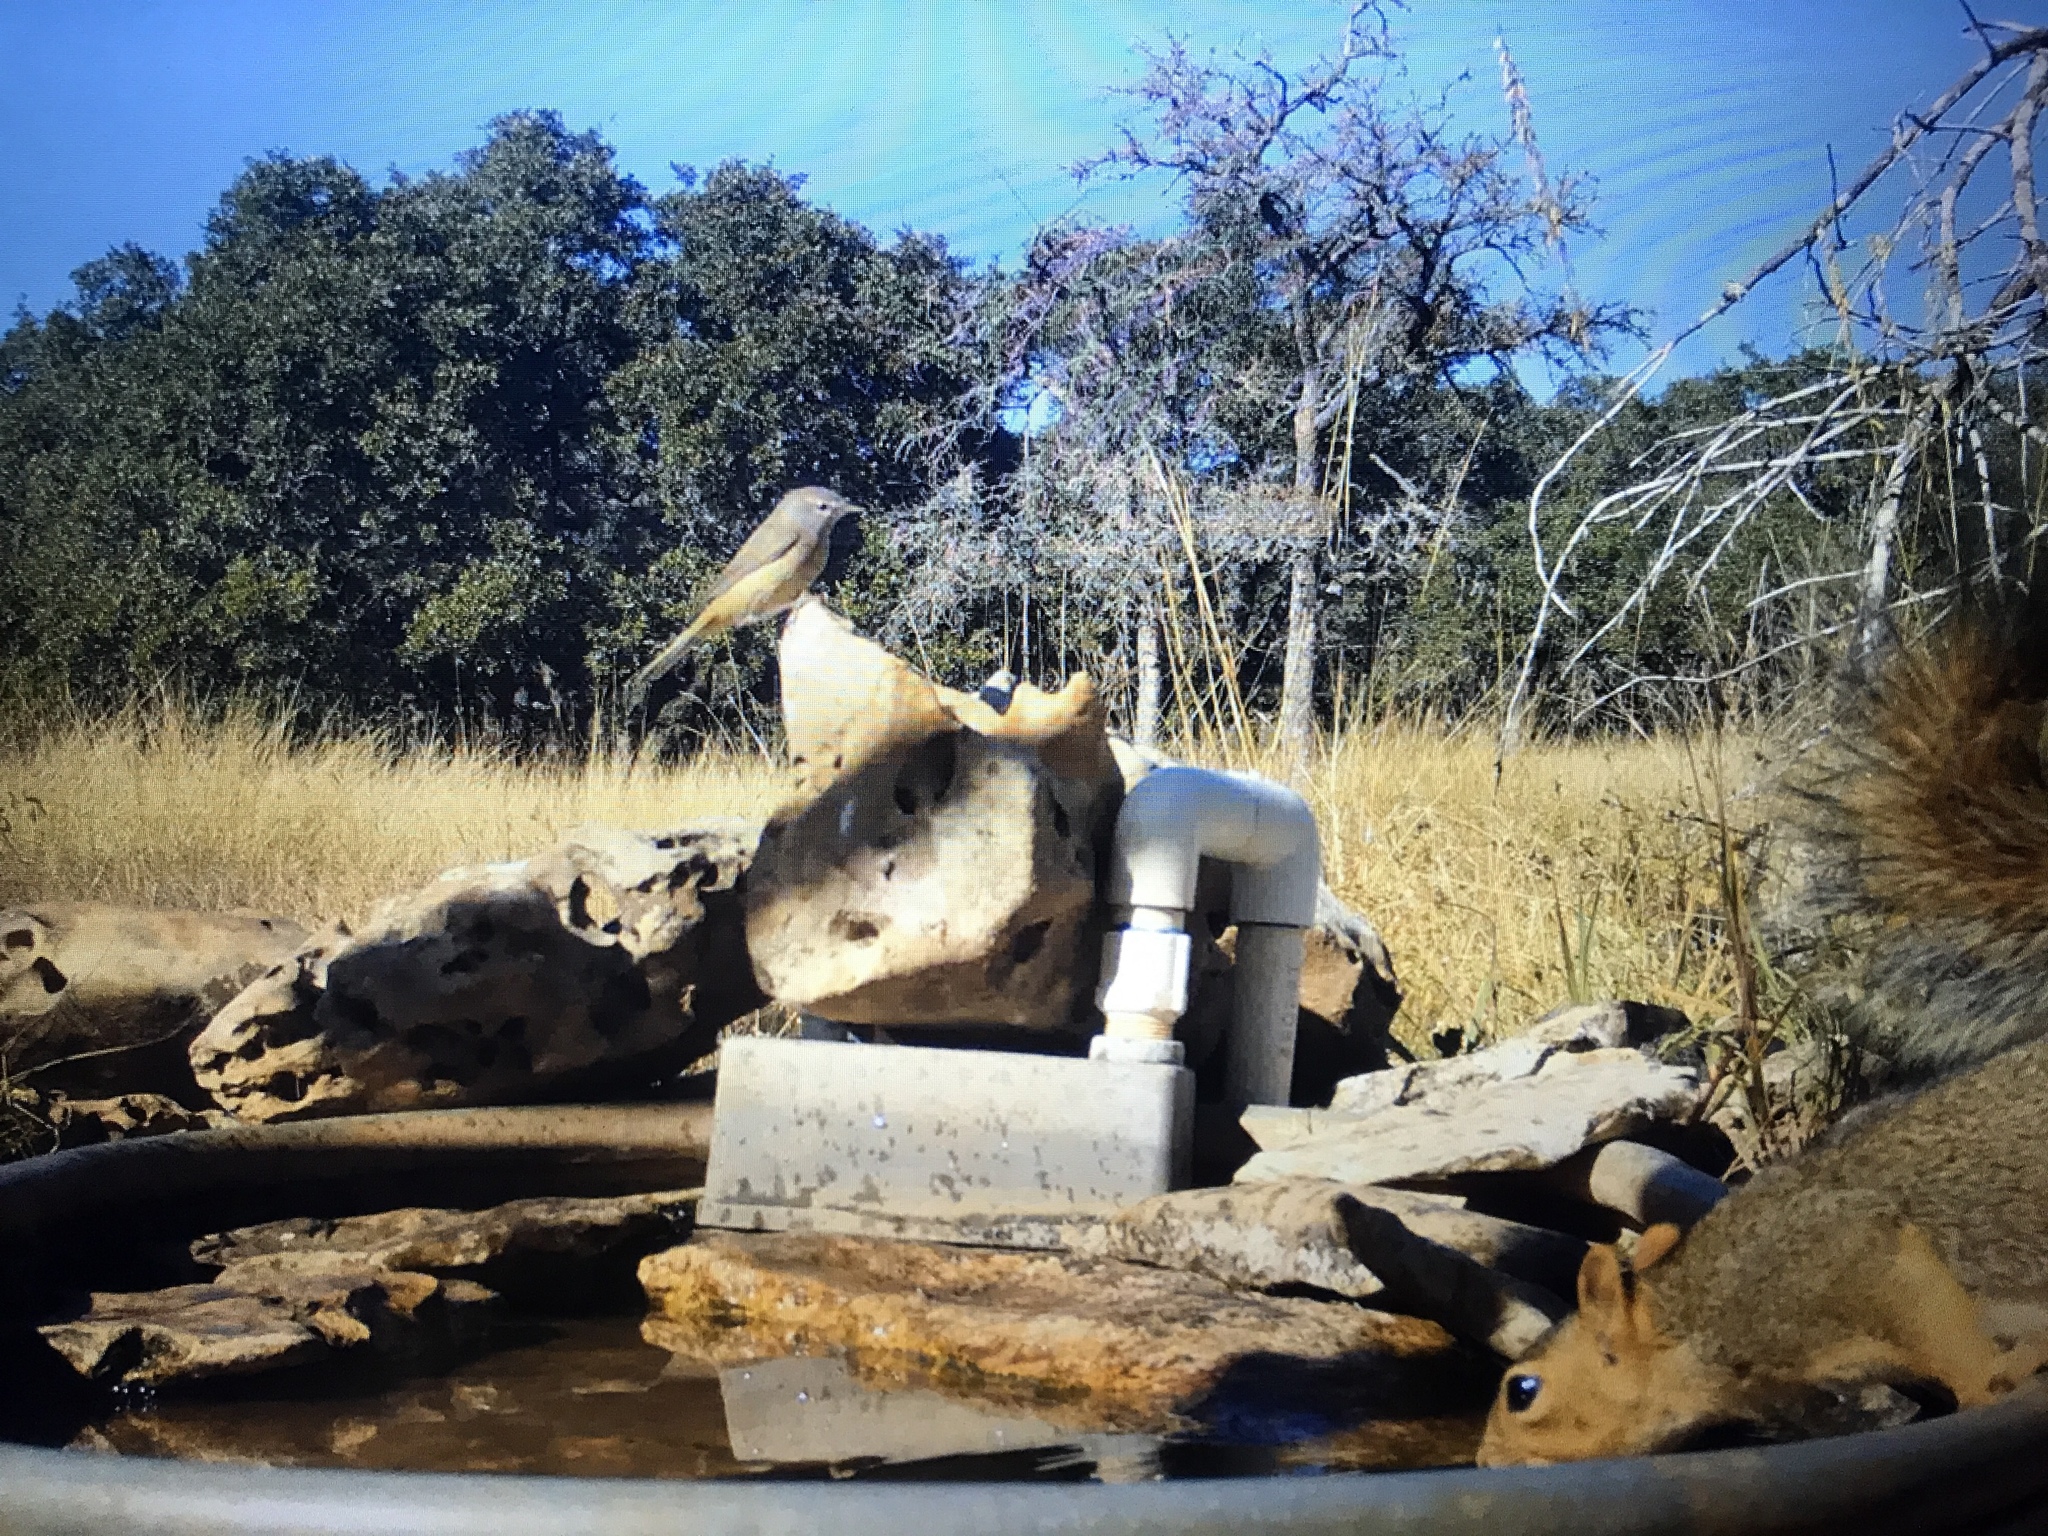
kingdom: Animalia
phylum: Chordata
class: Aves
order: Passeriformes
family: Parulidae
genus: Leiothlypis
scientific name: Leiothlypis celata
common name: Orange-crowned warbler
